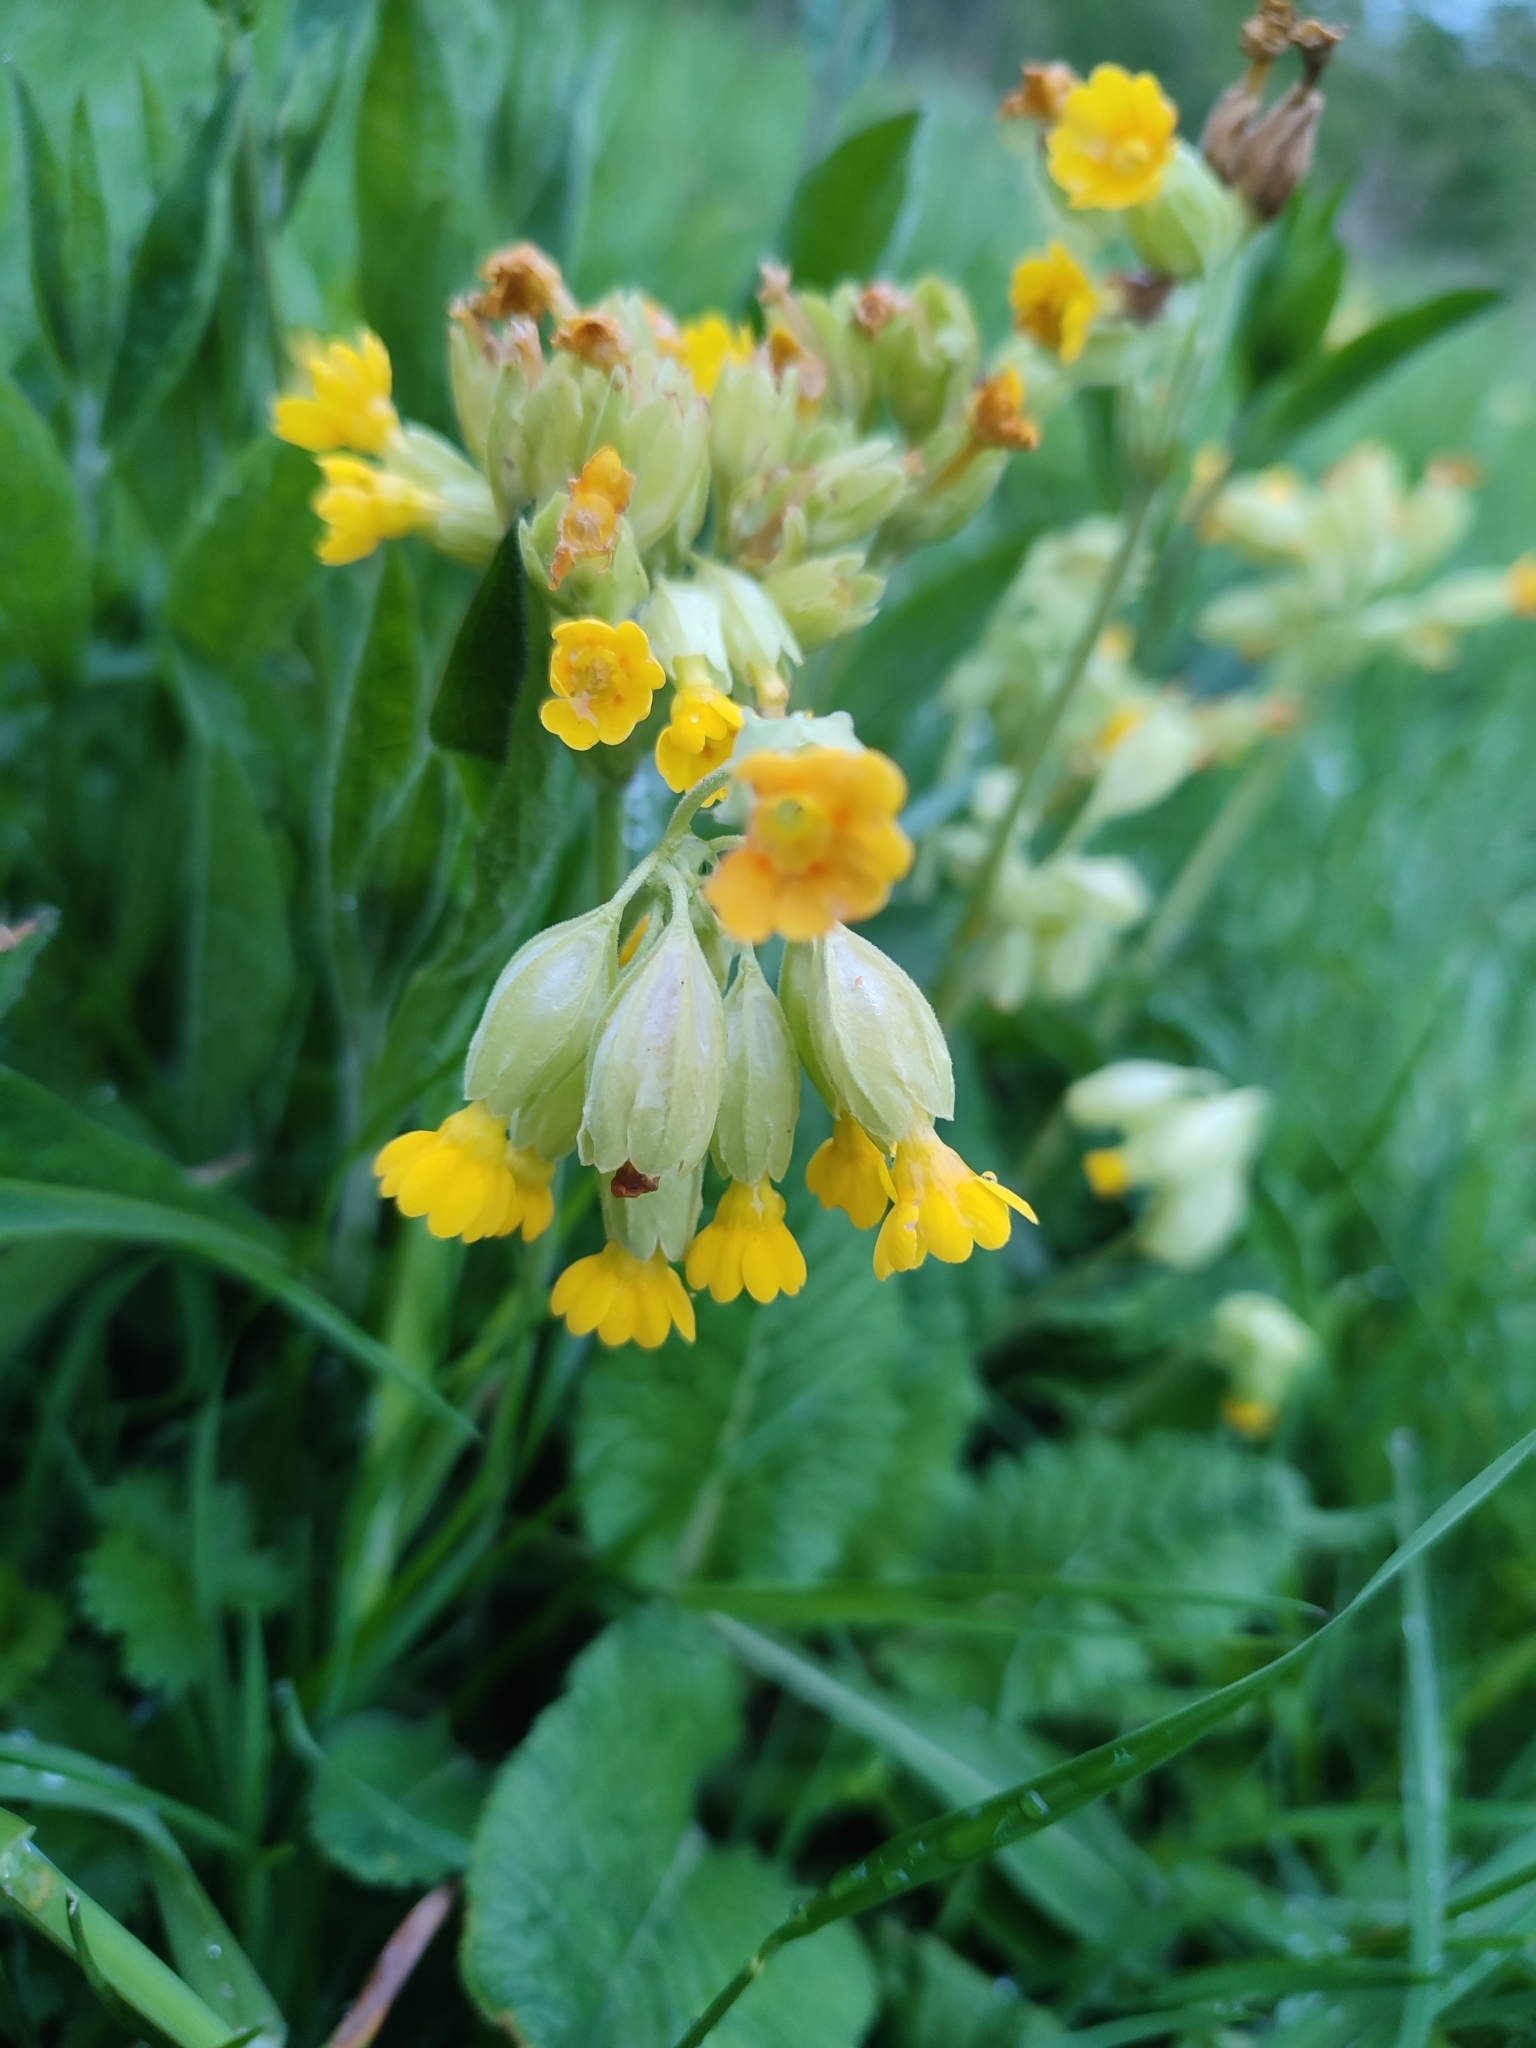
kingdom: Plantae
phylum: Tracheophyta
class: Magnoliopsida
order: Ericales
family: Primulaceae
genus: Primula
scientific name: Primula veris
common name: Cowslip
